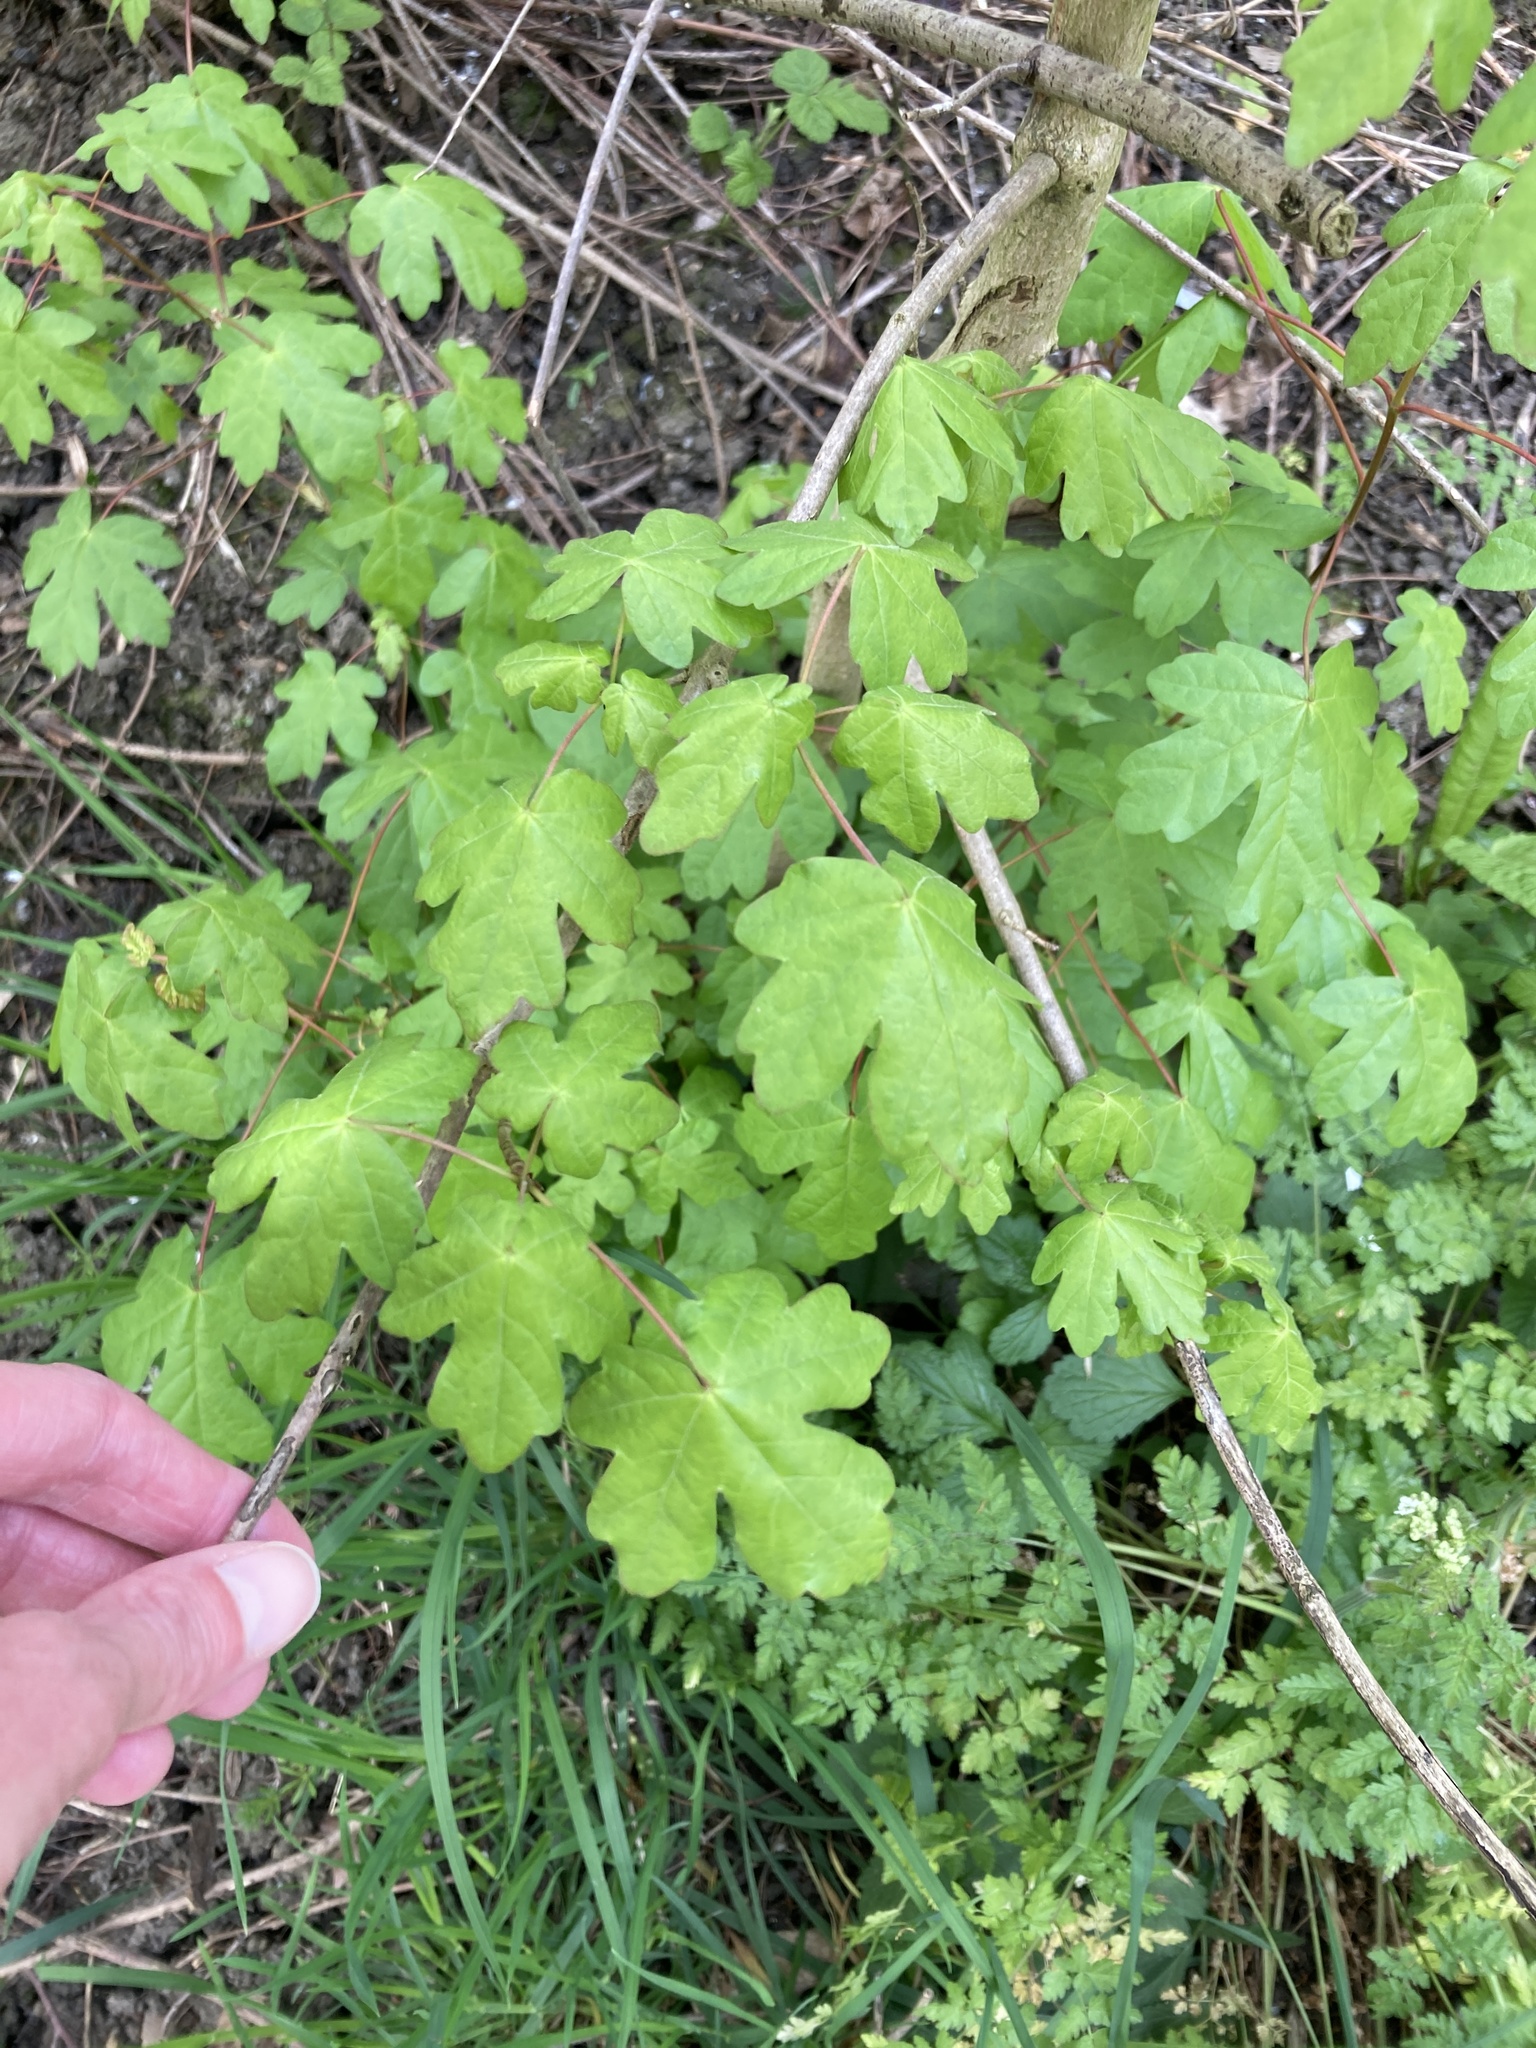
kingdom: Plantae
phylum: Tracheophyta
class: Magnoliopsida
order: Sapindales
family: Sapindaceae
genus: Acer
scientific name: Acer campestre
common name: Field maple
